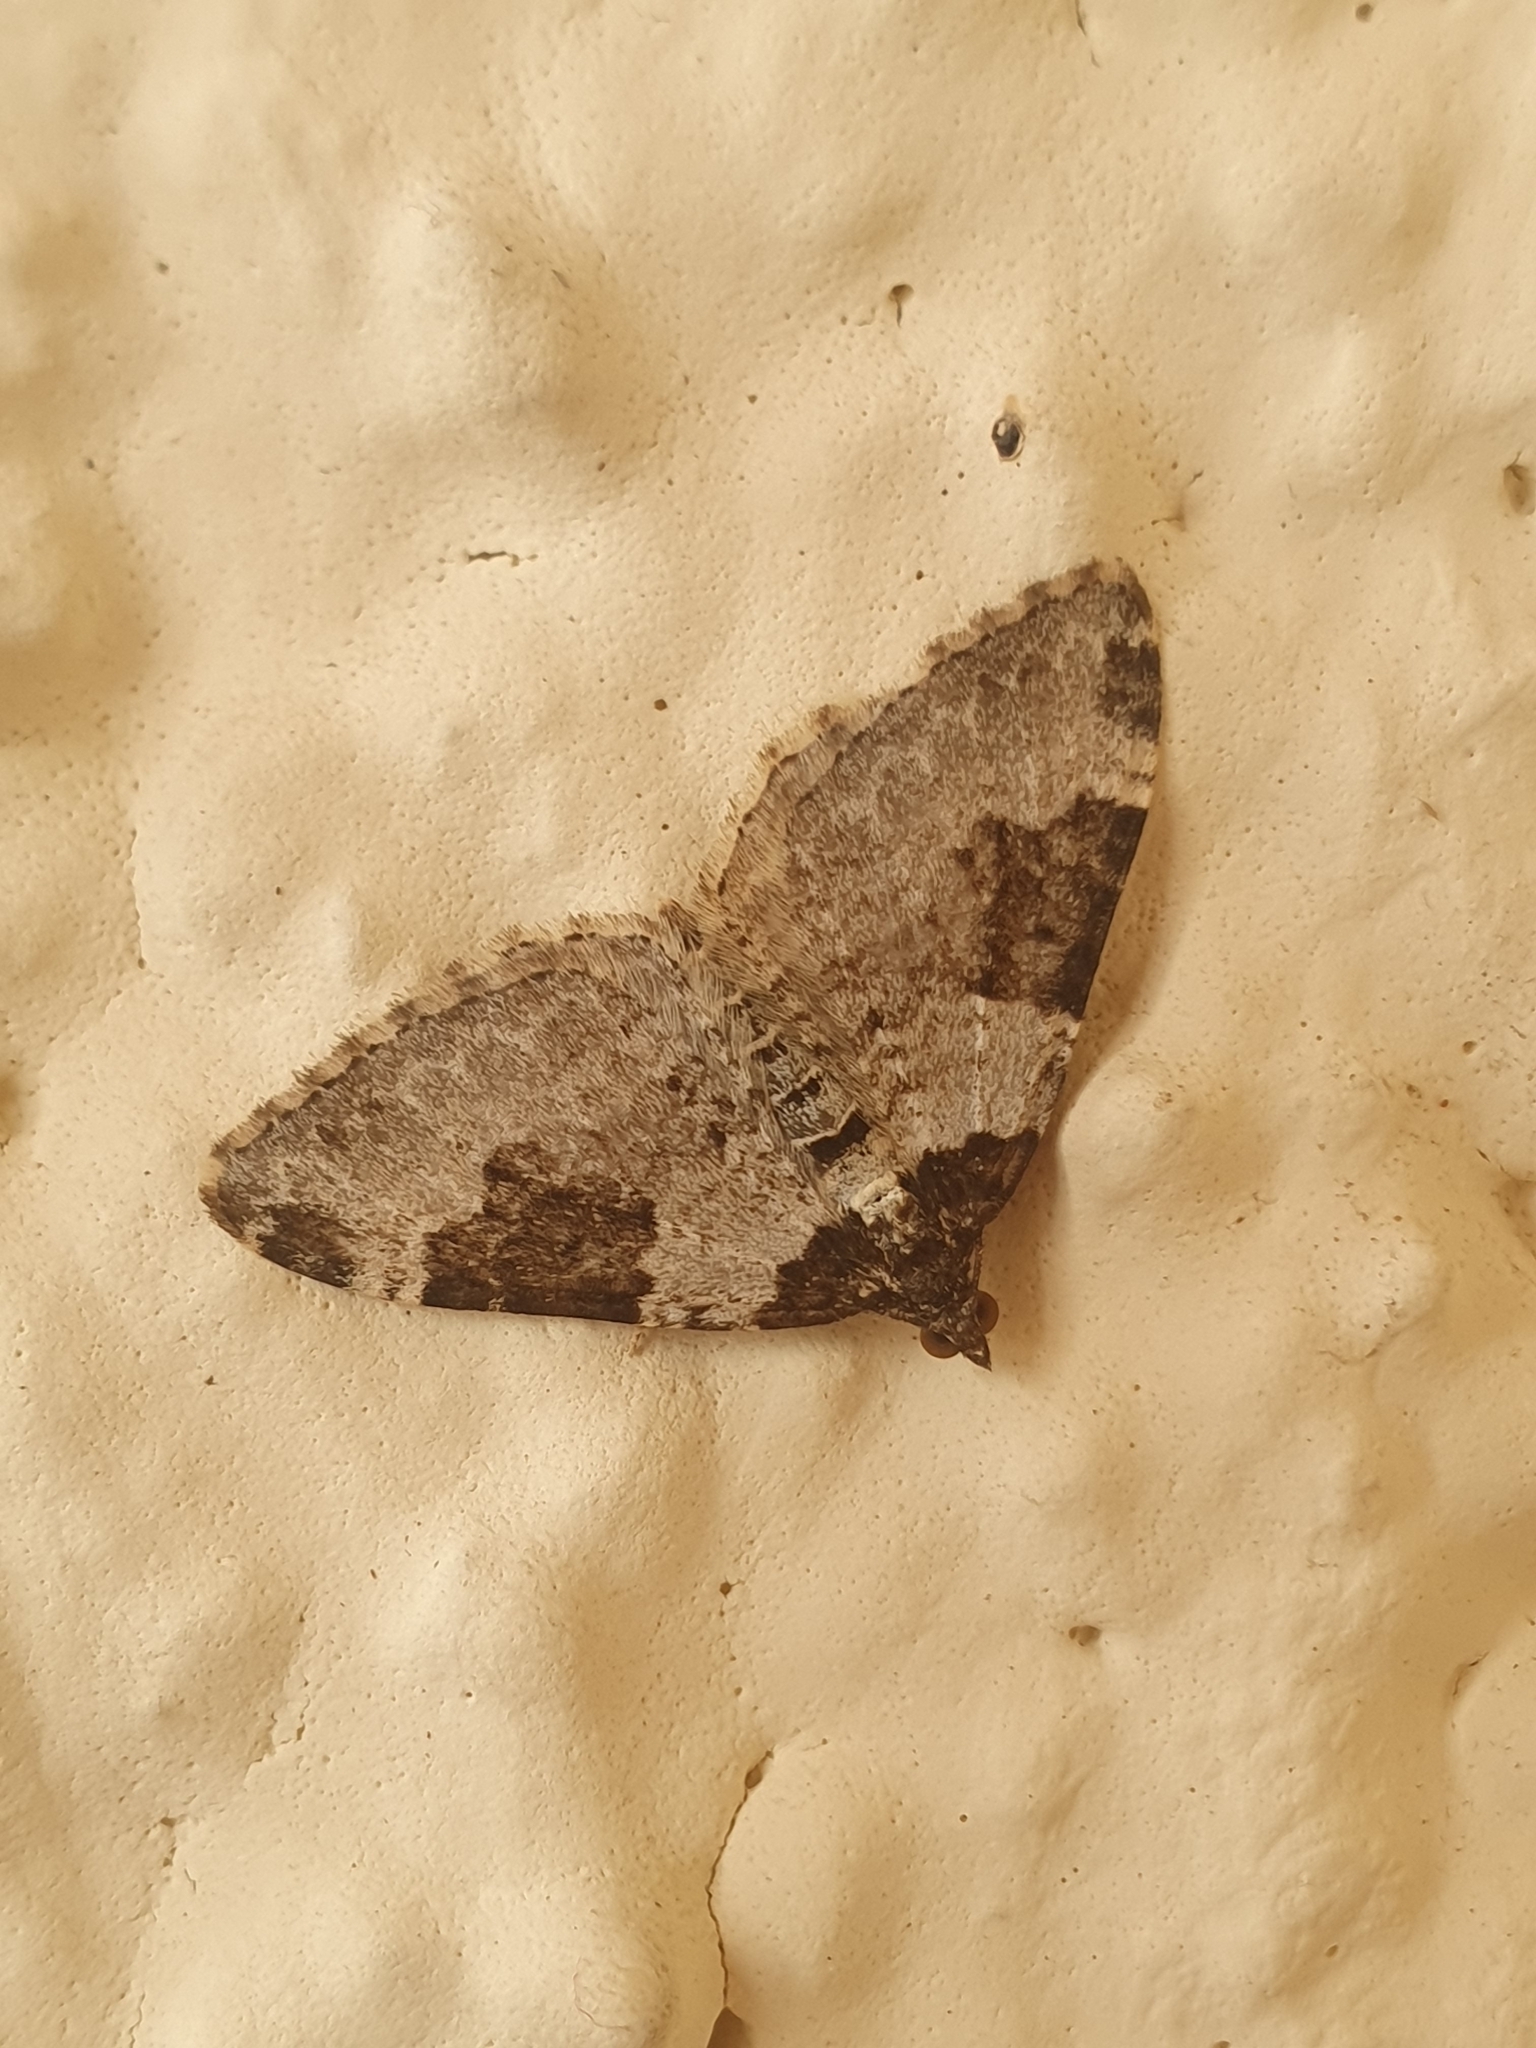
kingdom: Animalia
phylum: Arthropoda
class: Insecta
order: Lepidoptera
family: Geometridae
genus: Xanthorhoe
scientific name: Xanthorhoe fluctuata
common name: Garden carpet
